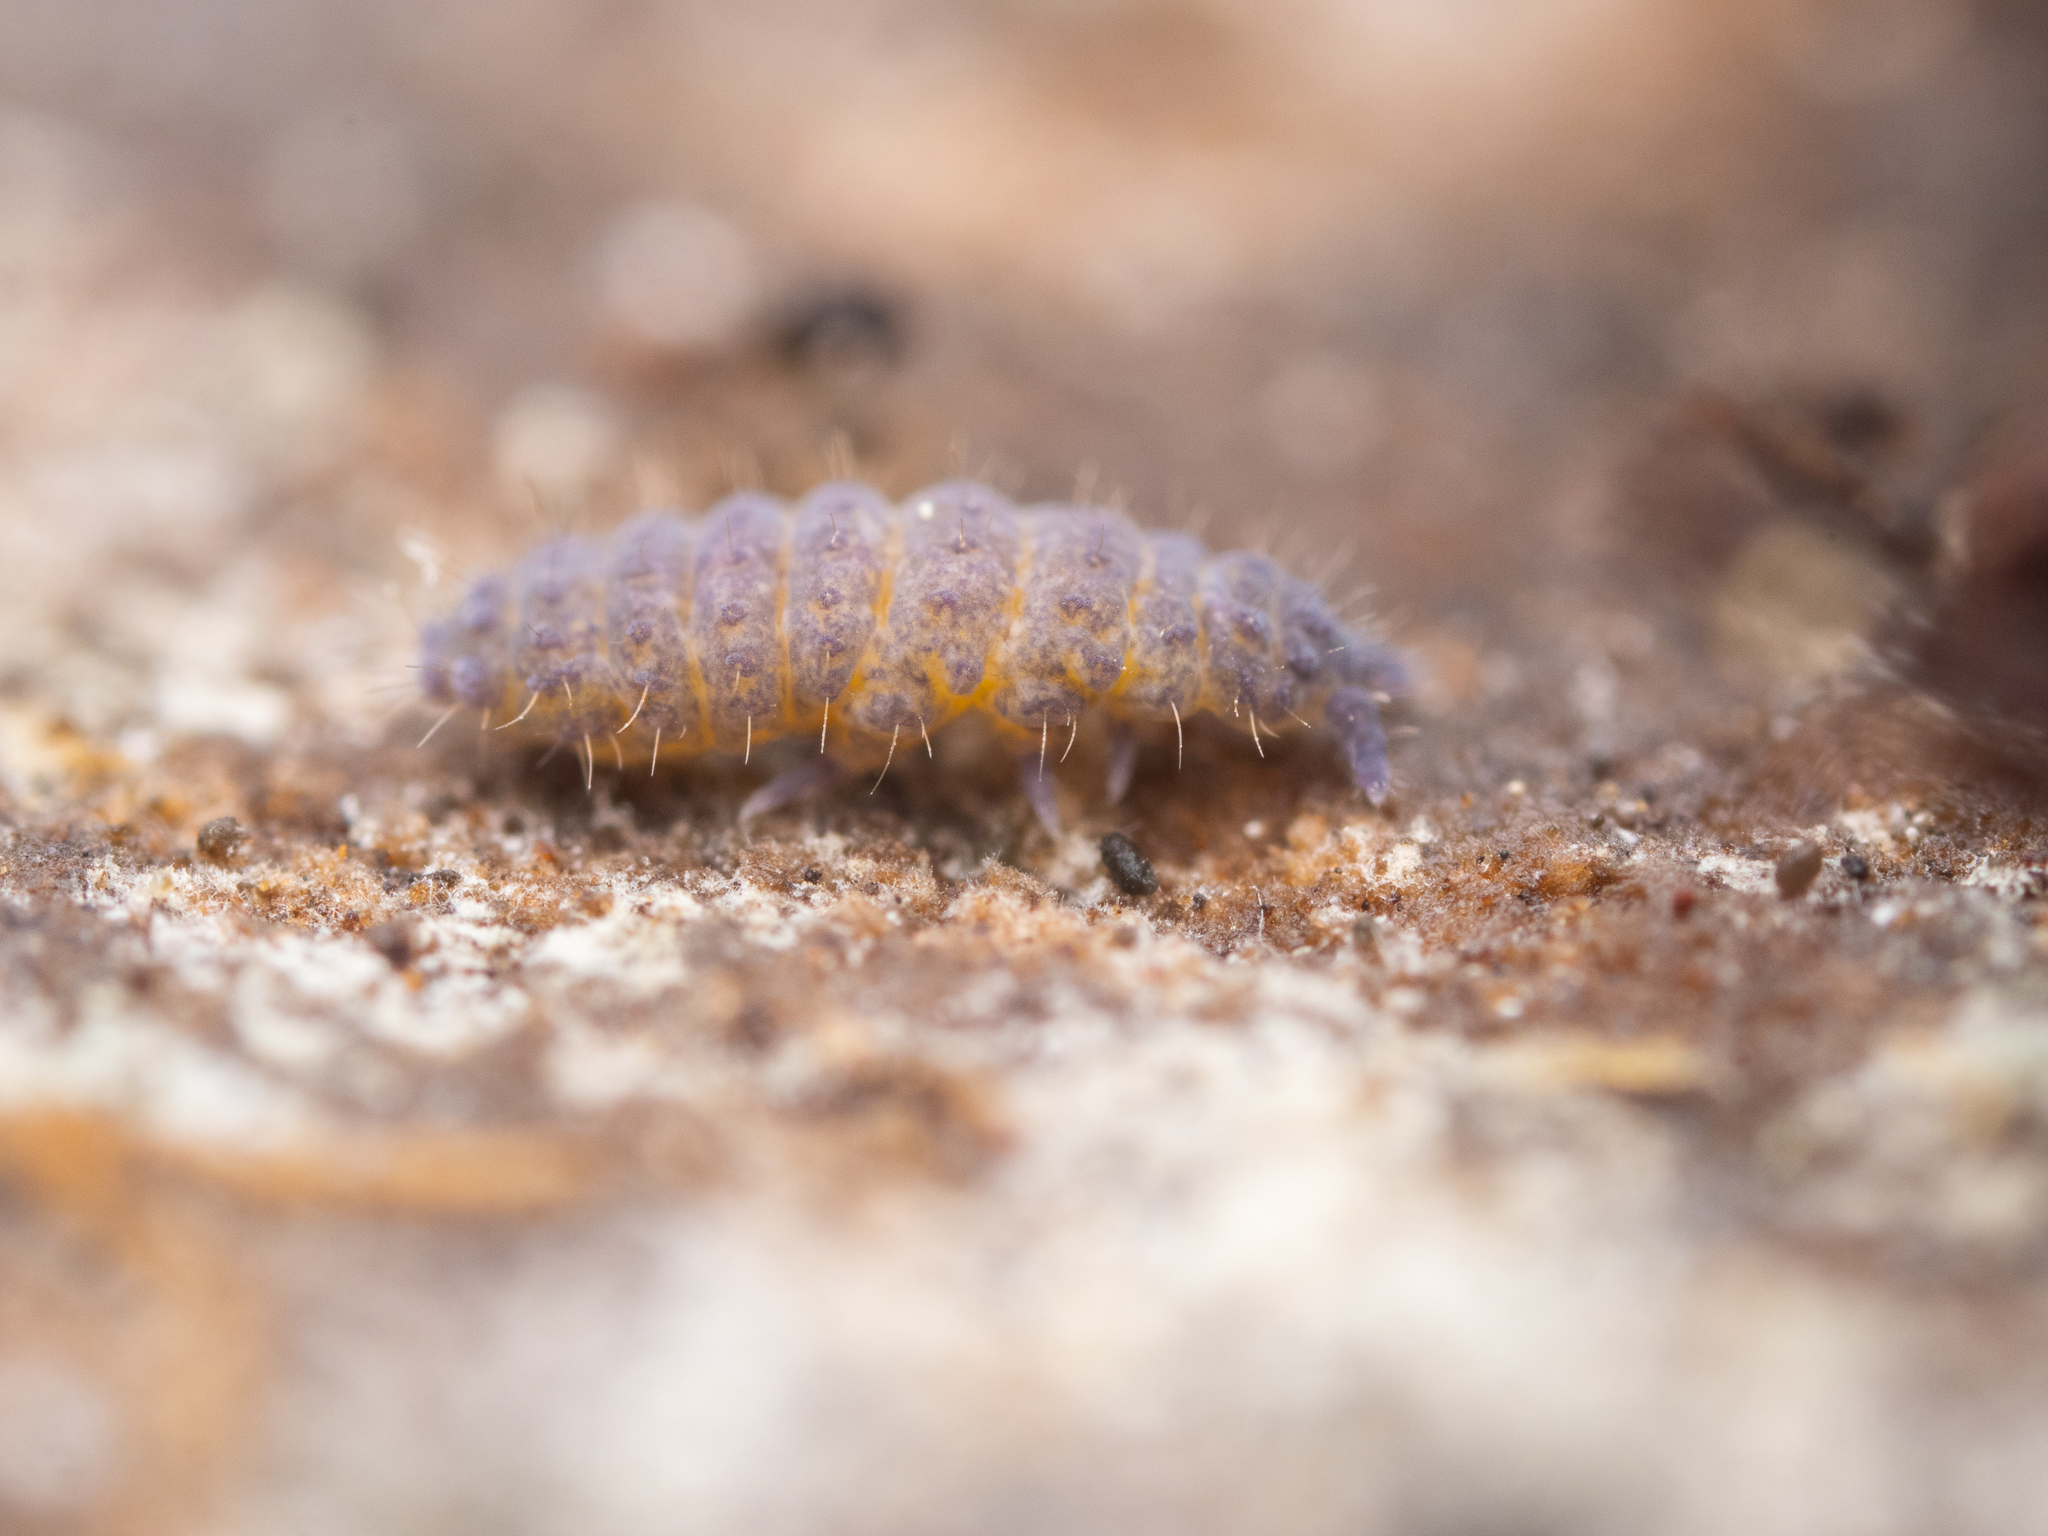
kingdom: Animalia
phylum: Arthropoda
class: Collembola
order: Poduromorpha
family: Neanuridae
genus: Neanura
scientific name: Neanura muscorum
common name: Springtail
